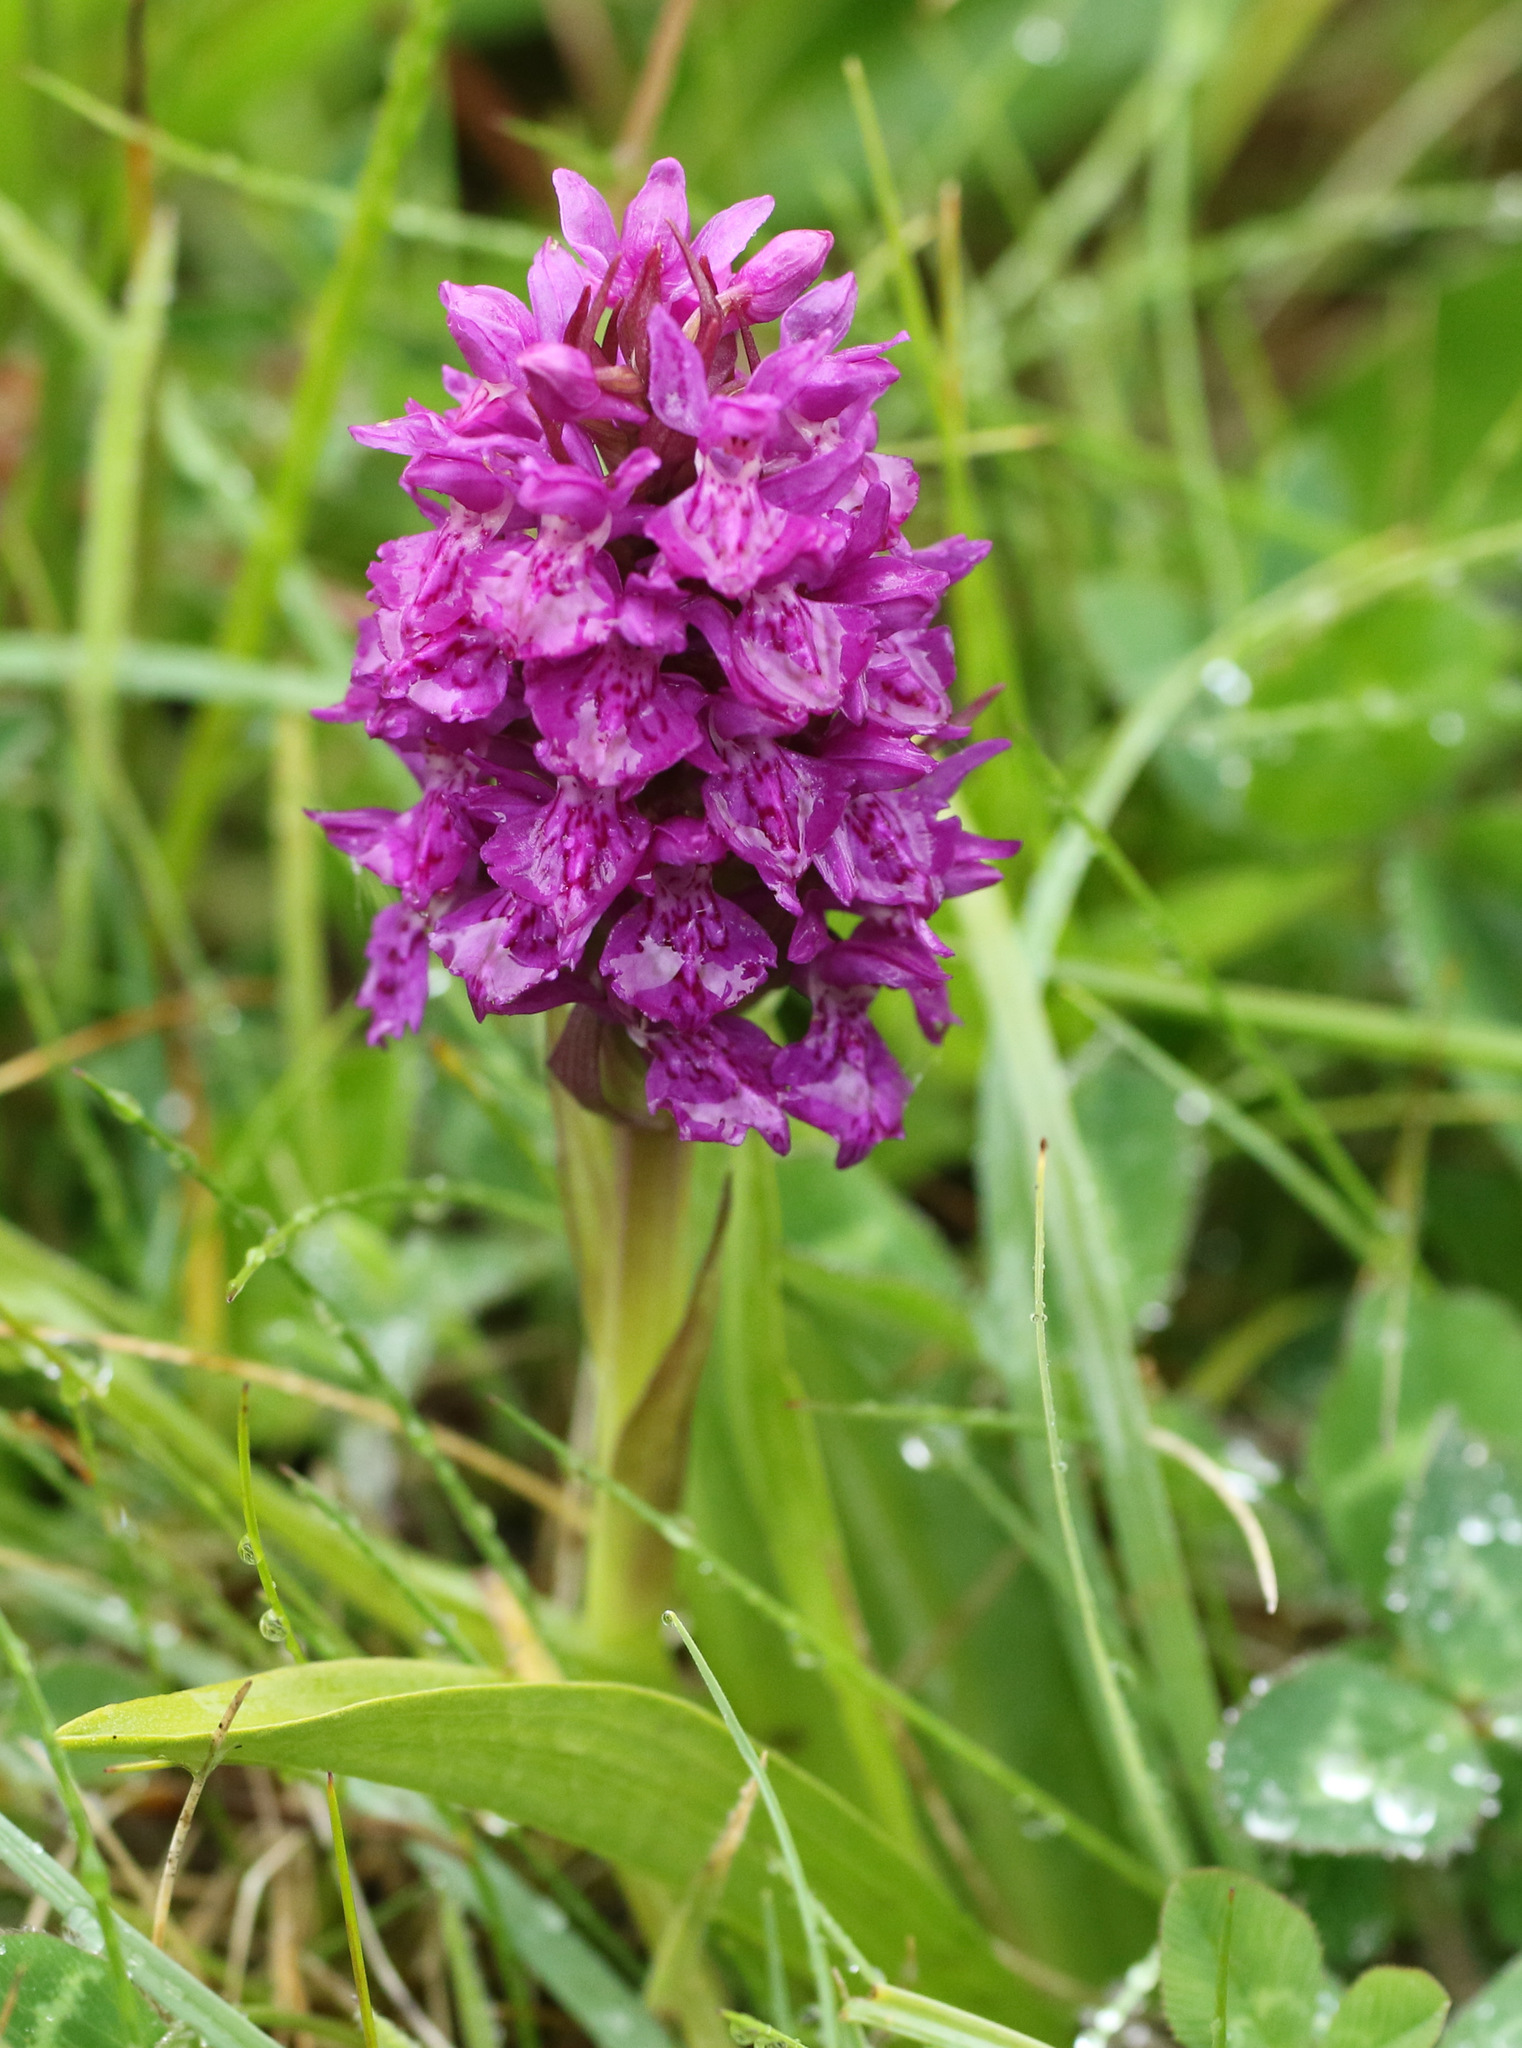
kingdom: Plantae
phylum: Tracheophyta
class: Liliopsida
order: Asparagales
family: Orchidaceae
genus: Dactylorhiza
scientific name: Dactylorhiza majalis
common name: Marsh orchid
